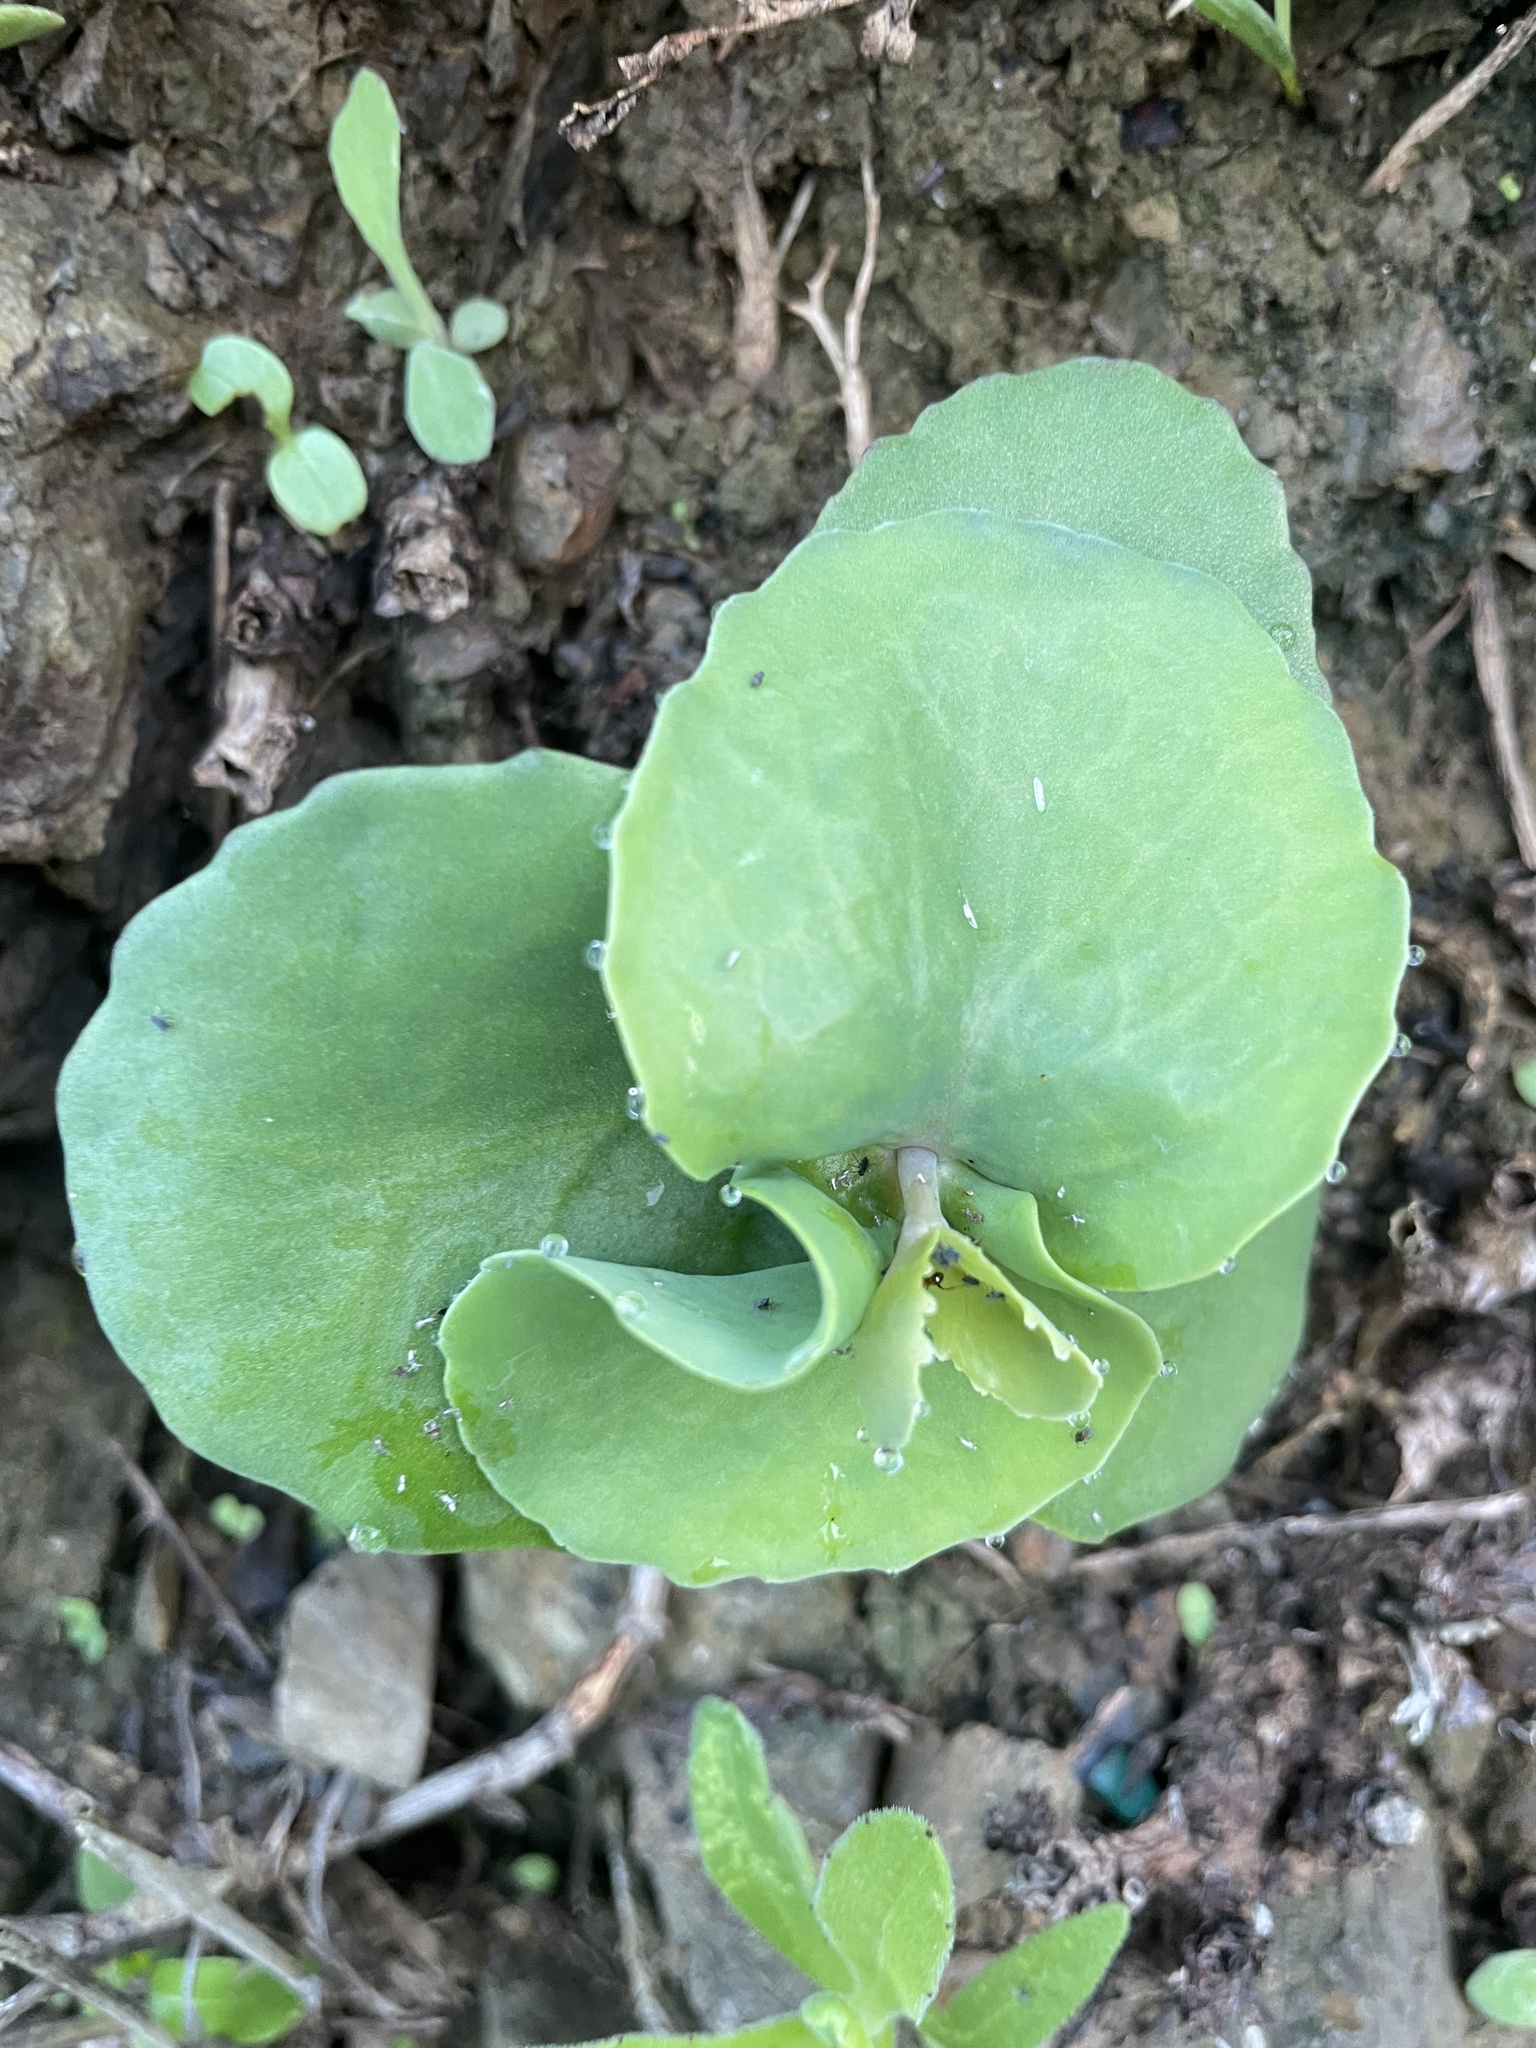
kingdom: Plantae
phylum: Tracheophyta
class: Magnoliopsida
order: Saxifragales
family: Crassulaceae
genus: Hylotelephium
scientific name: Hylotelephium maximum
